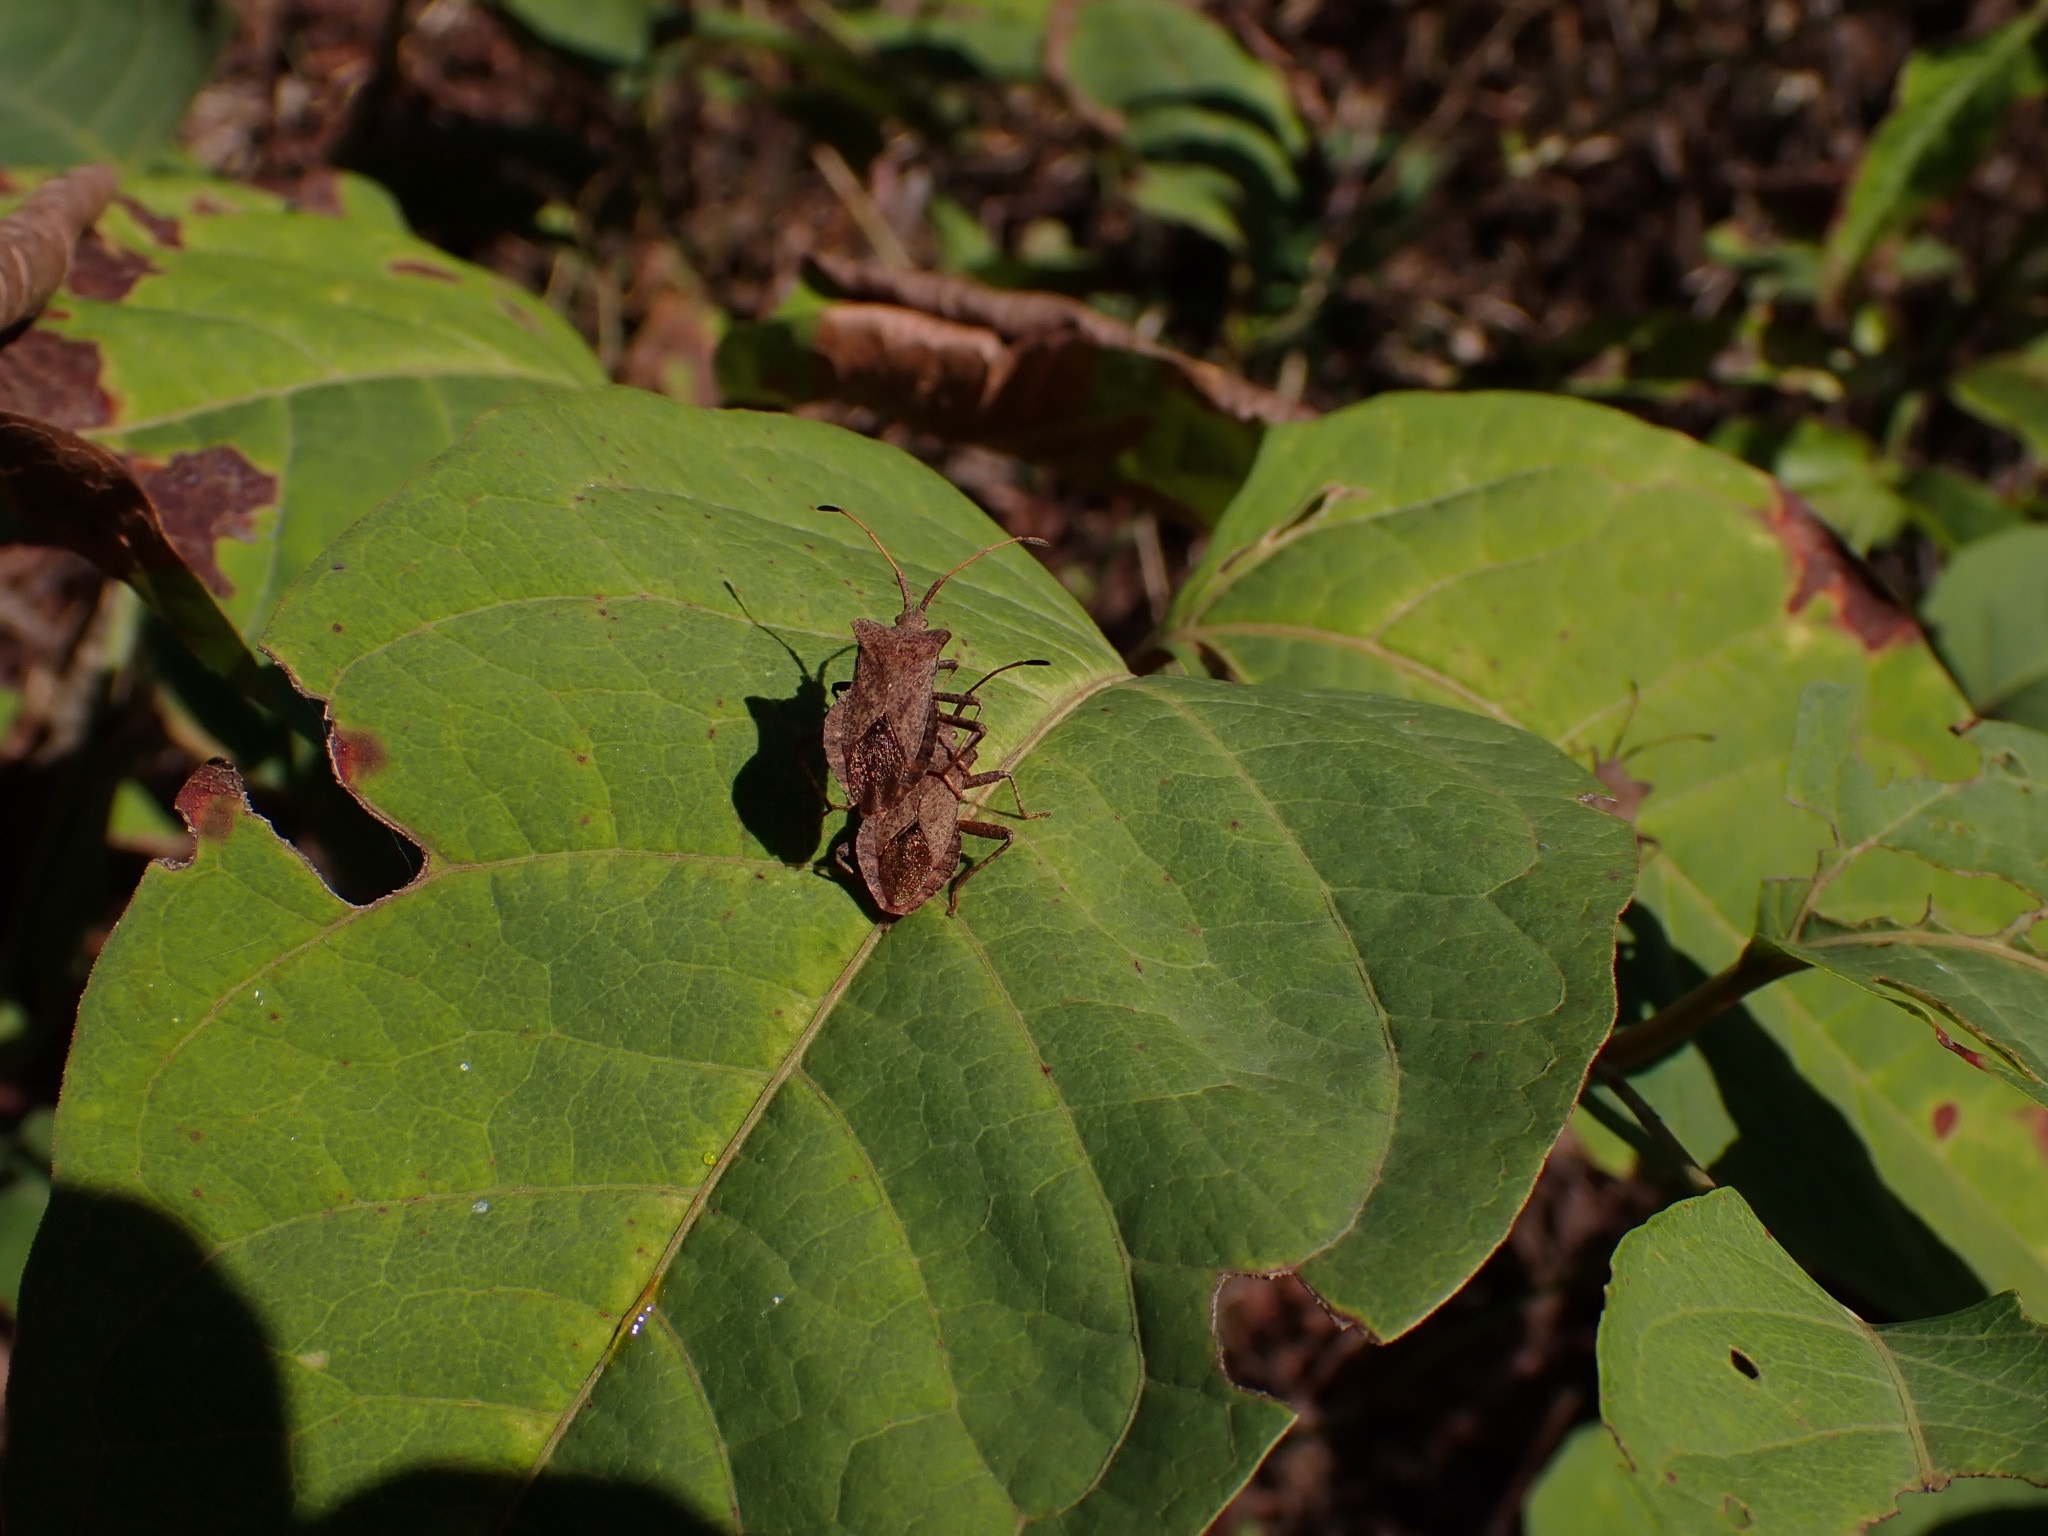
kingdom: Animalia
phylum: Arthropoda
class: Insecta
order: Hemiptera
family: Coreidae
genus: Coreus
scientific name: Coreus marginatus
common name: Dock bug
